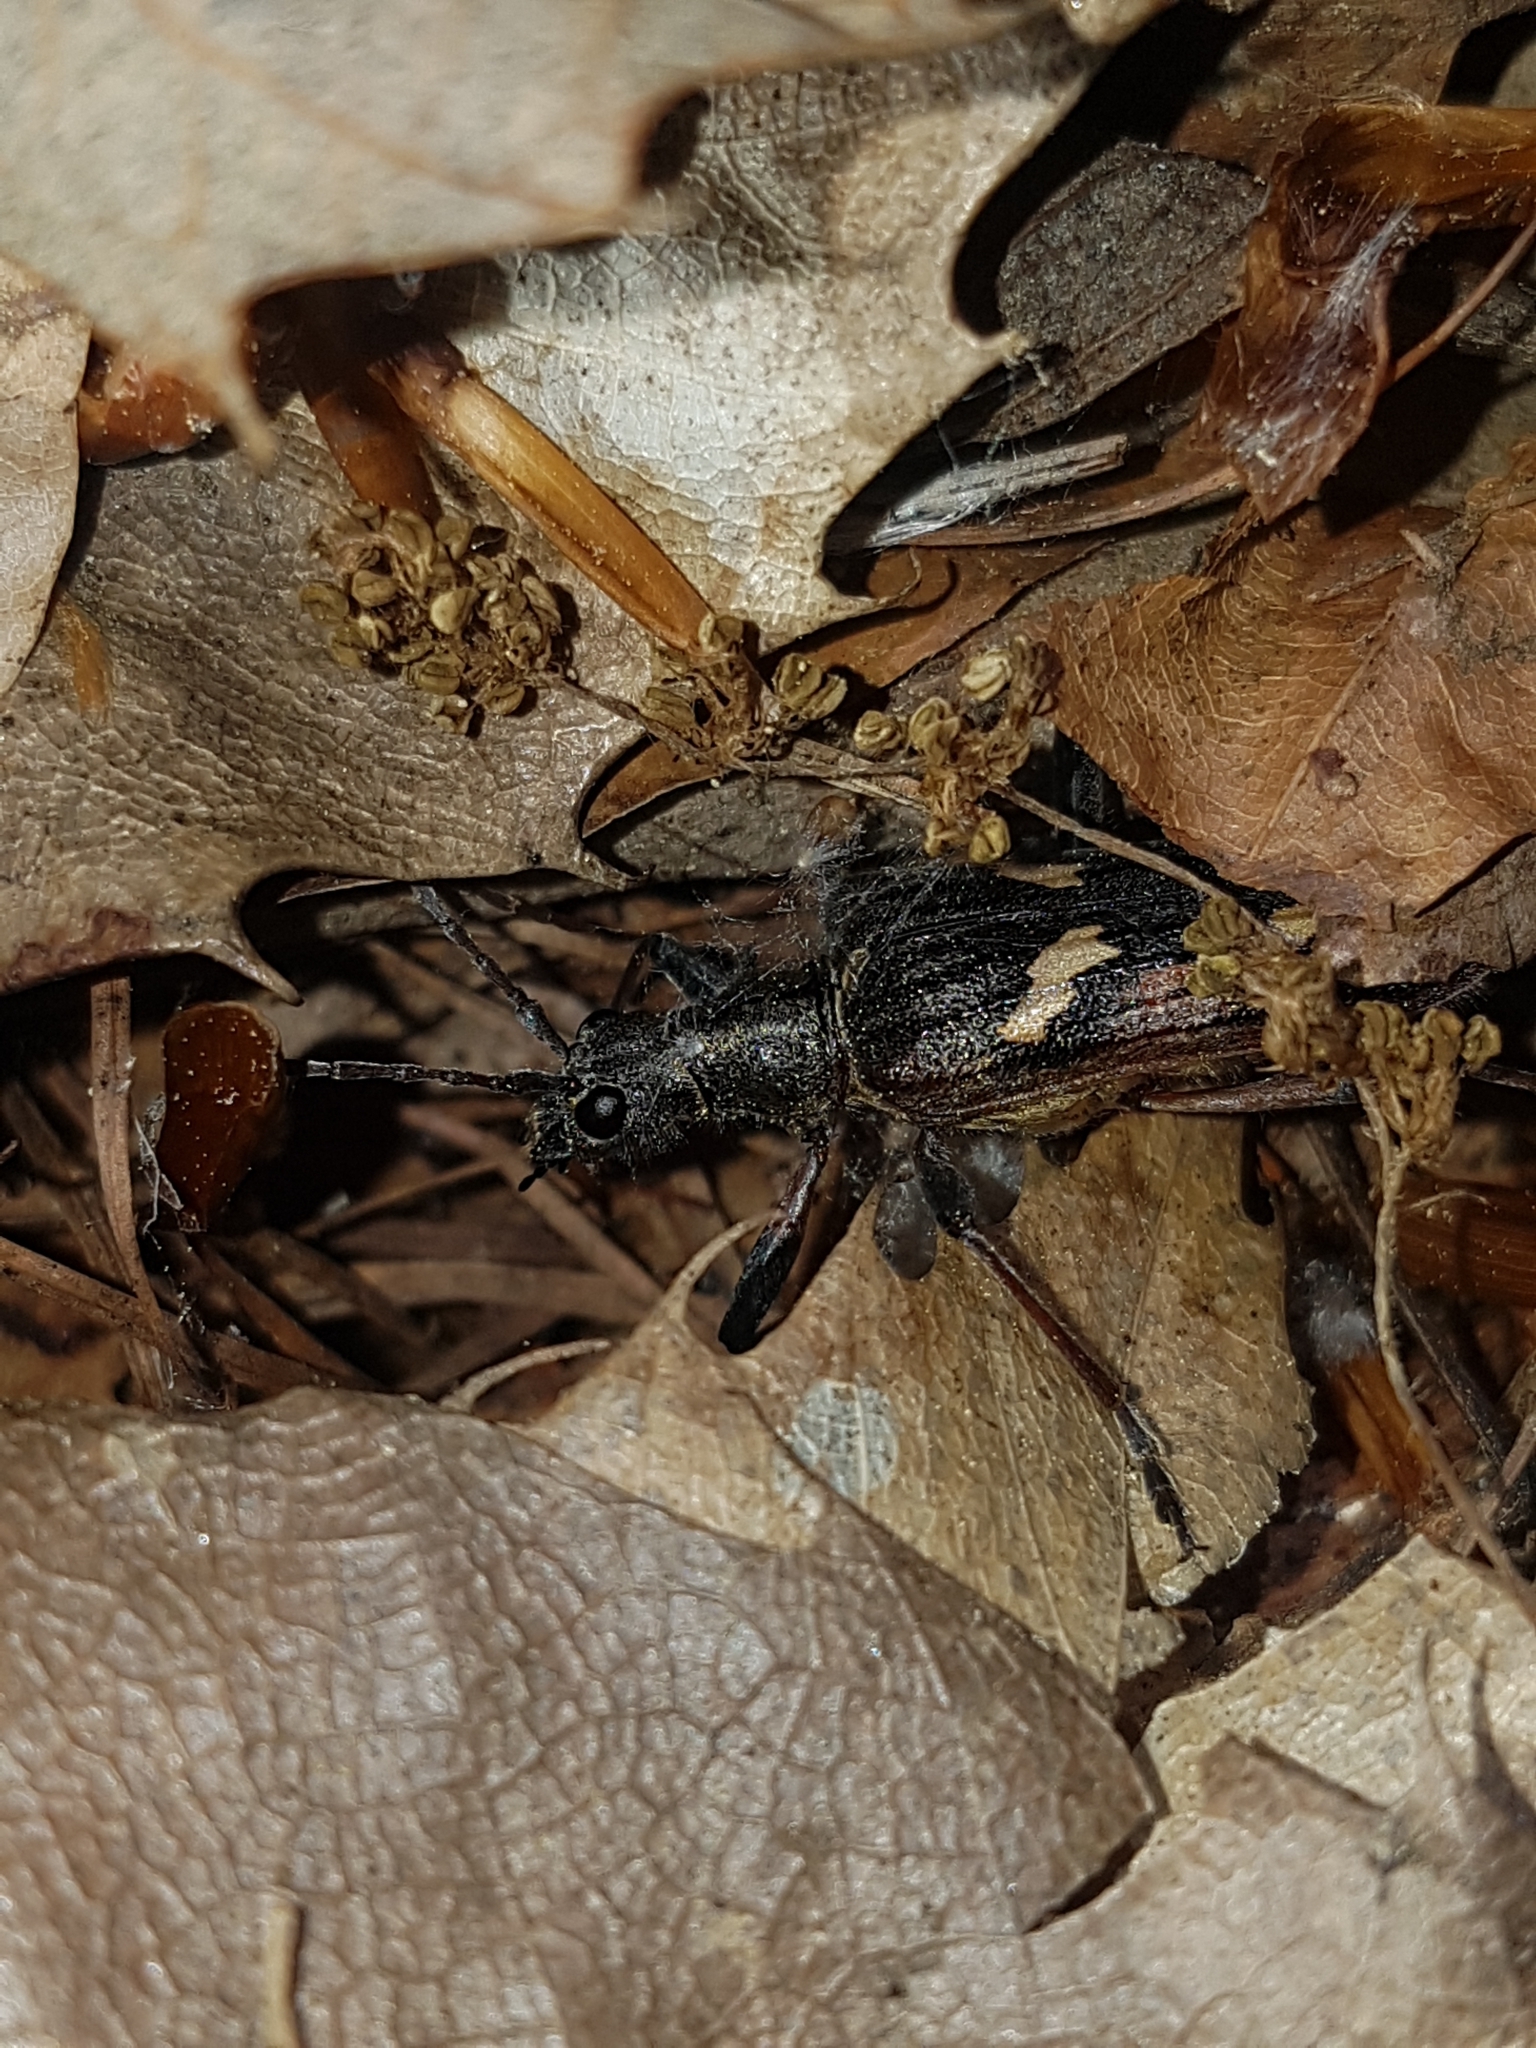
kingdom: Animalia
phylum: Arthropoda
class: Insecta
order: Coleoptera
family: Cerambycidae
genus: Rhagium
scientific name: Rhagium bifasciatum
